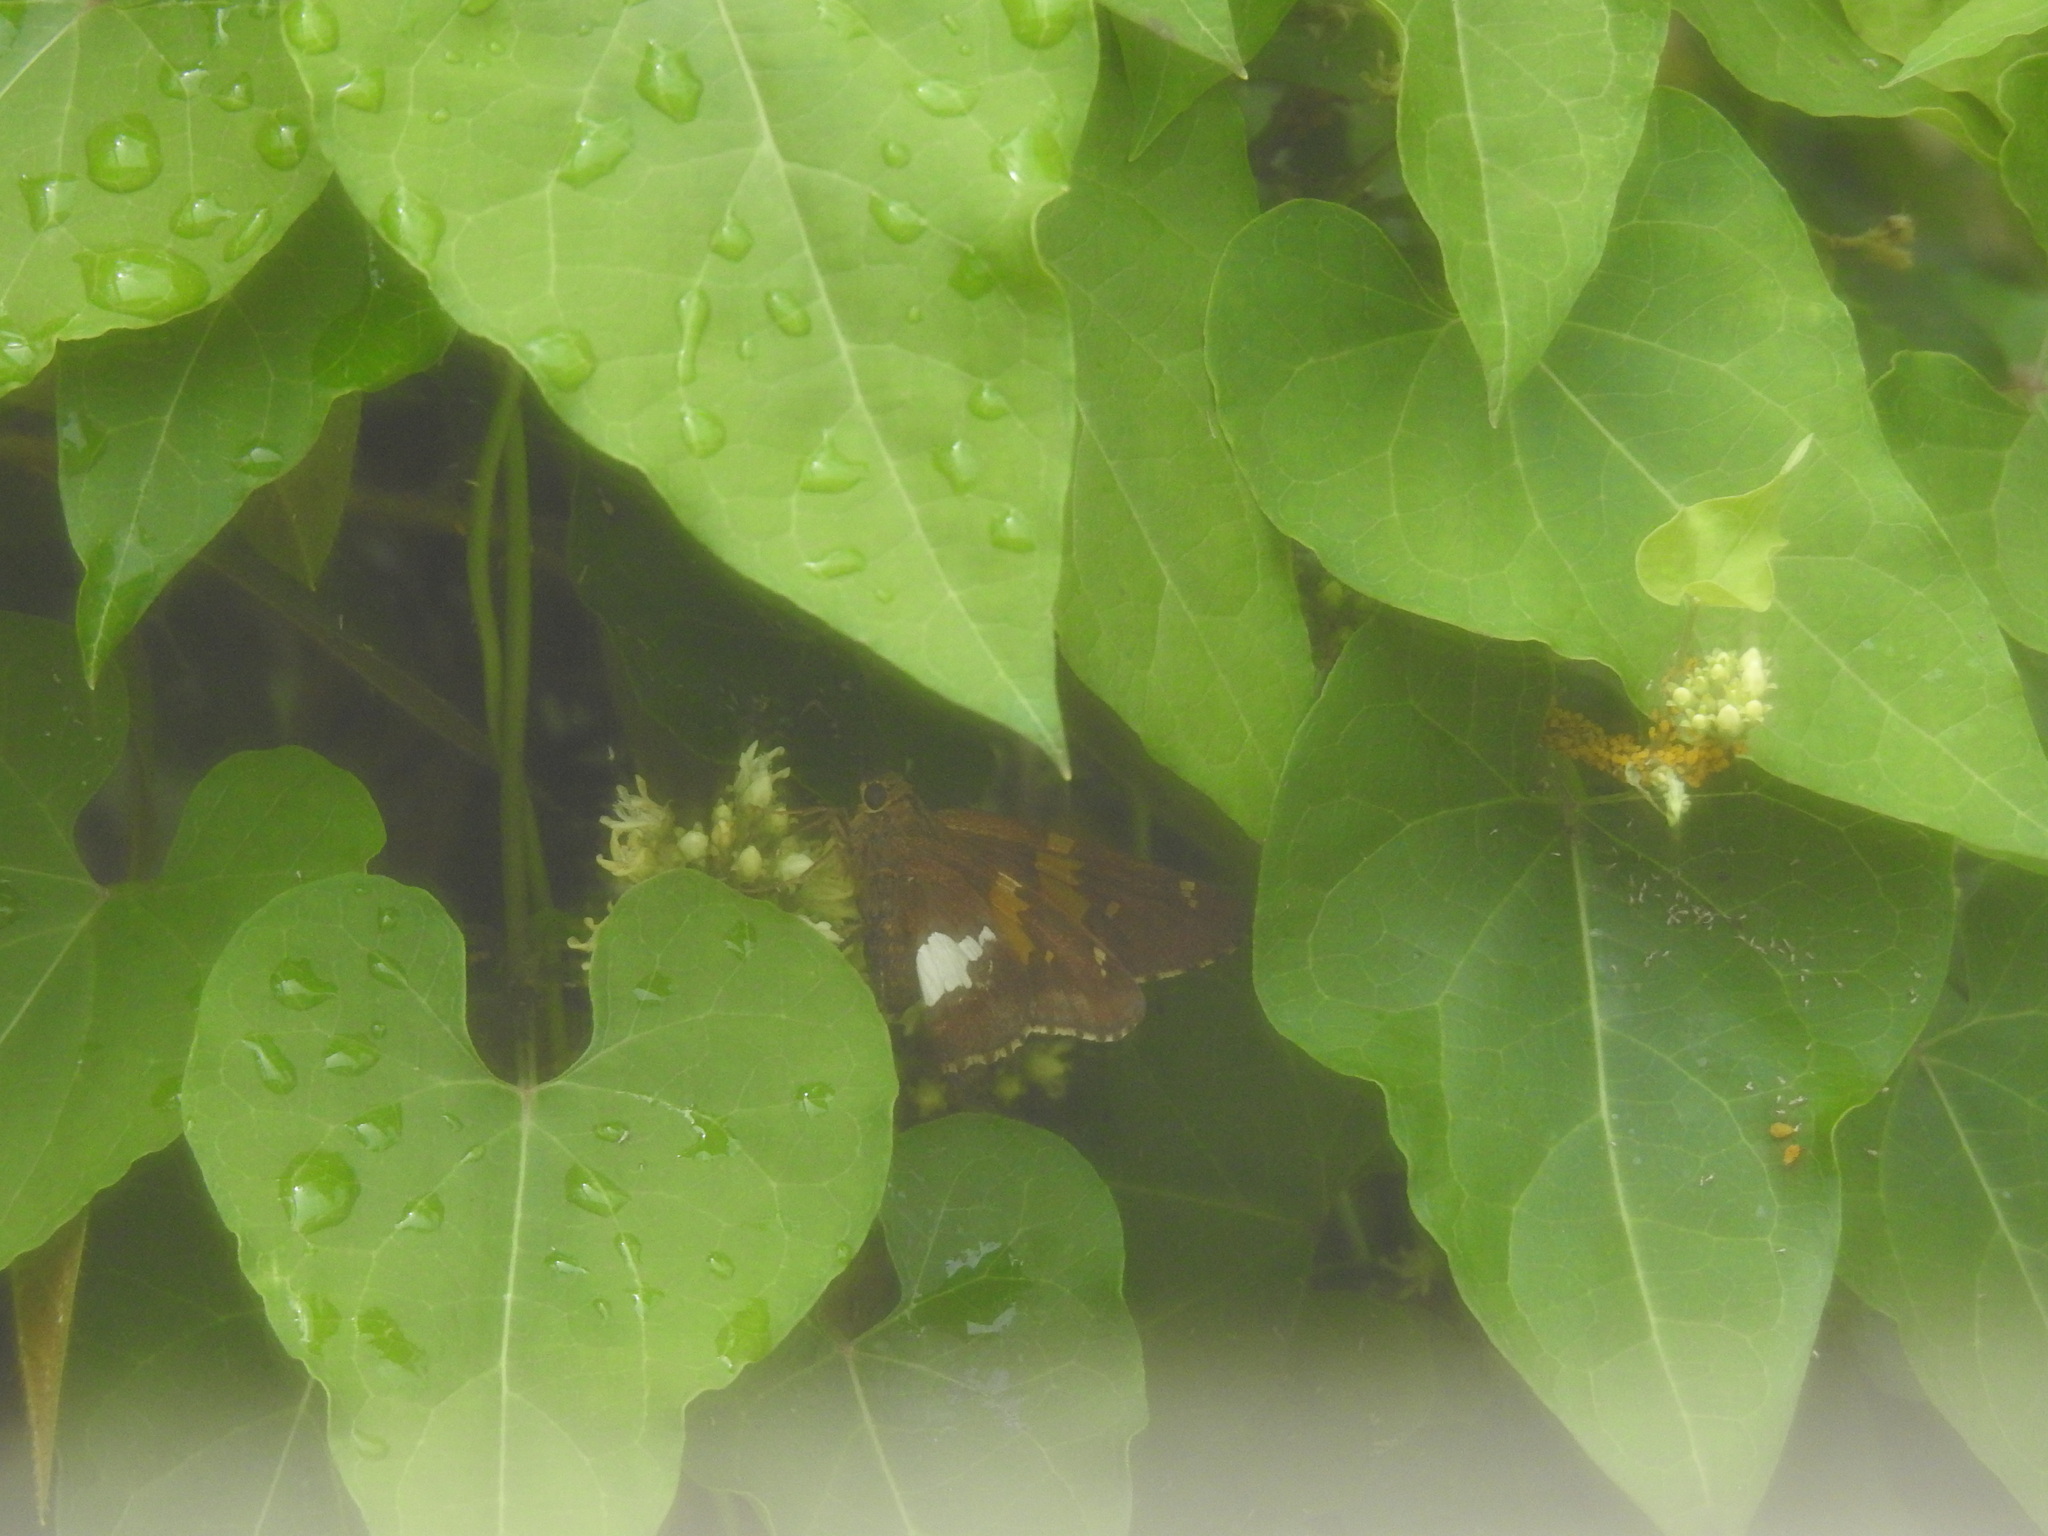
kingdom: Animalia
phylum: Arthropoda
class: Insecta
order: Lepidoptera
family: Hesperiidae
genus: Epargyreus
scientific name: Epargyreus clarus
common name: Silver-spotted skipper
